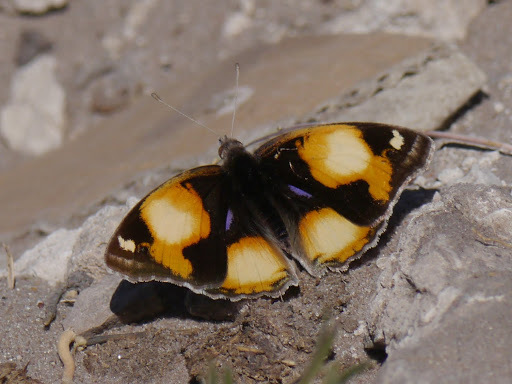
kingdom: Animalia
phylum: Arthropoda
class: Insecta
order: Lepidoptera
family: Nymphalidae
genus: Junonia
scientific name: Junonia hierta
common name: Yellow pansy
